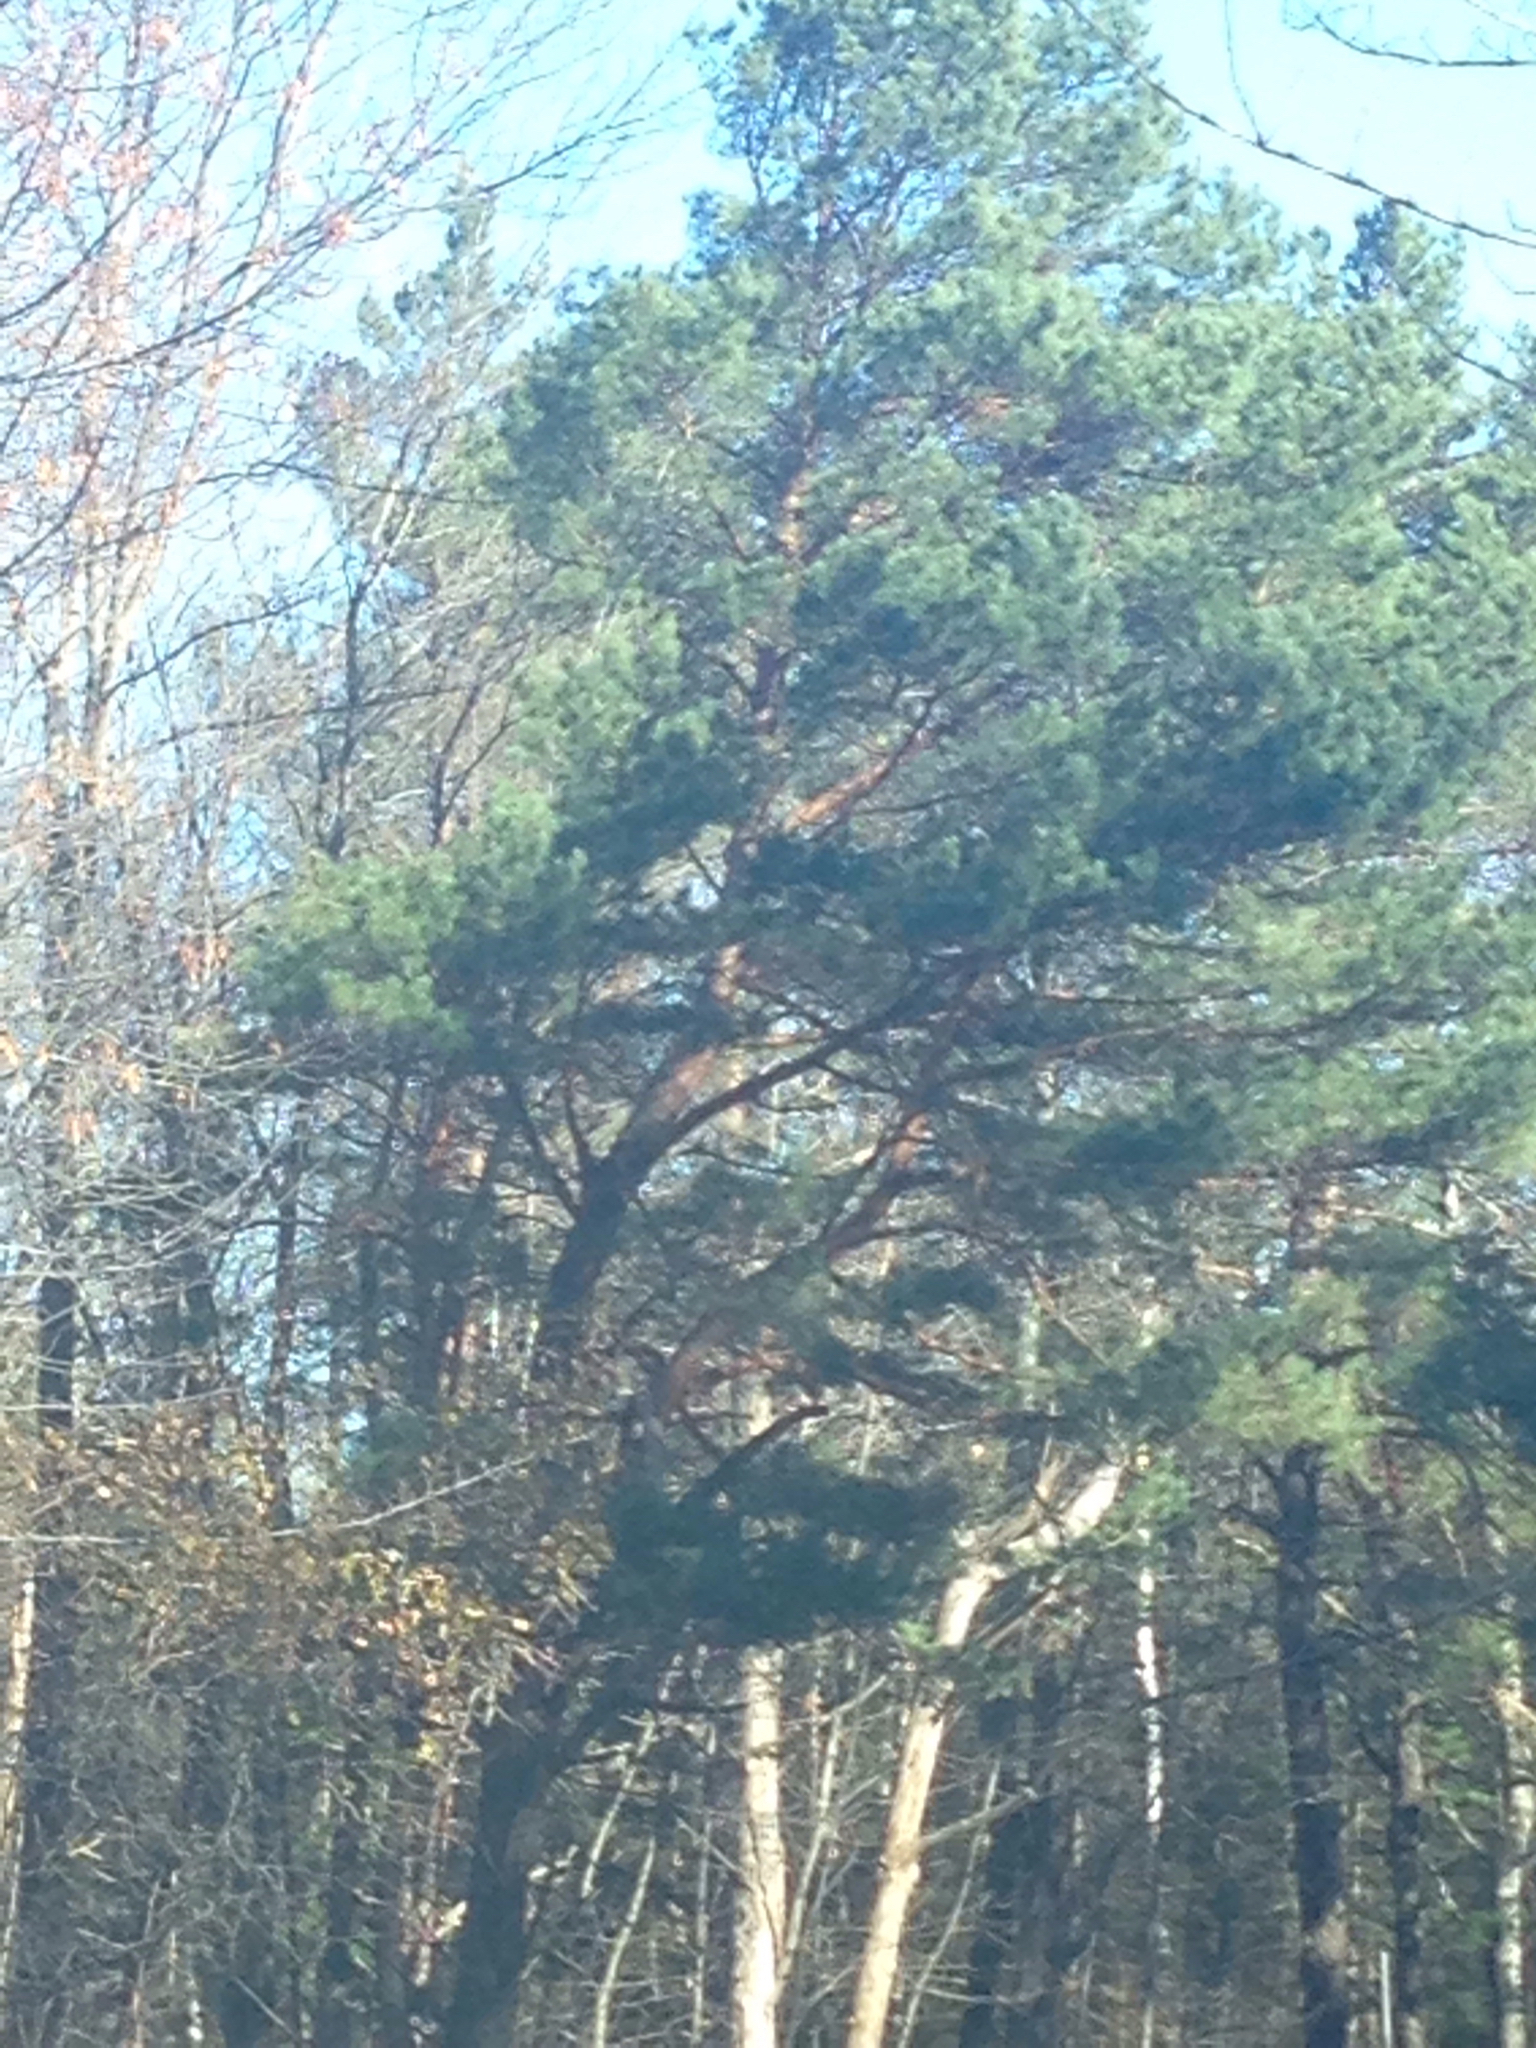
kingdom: Plantae
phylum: Tracheophyta
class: Pinopsida
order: Pinales
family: Pinaceae
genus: Pinus
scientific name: Pinus sylvestris
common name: Scots pine
